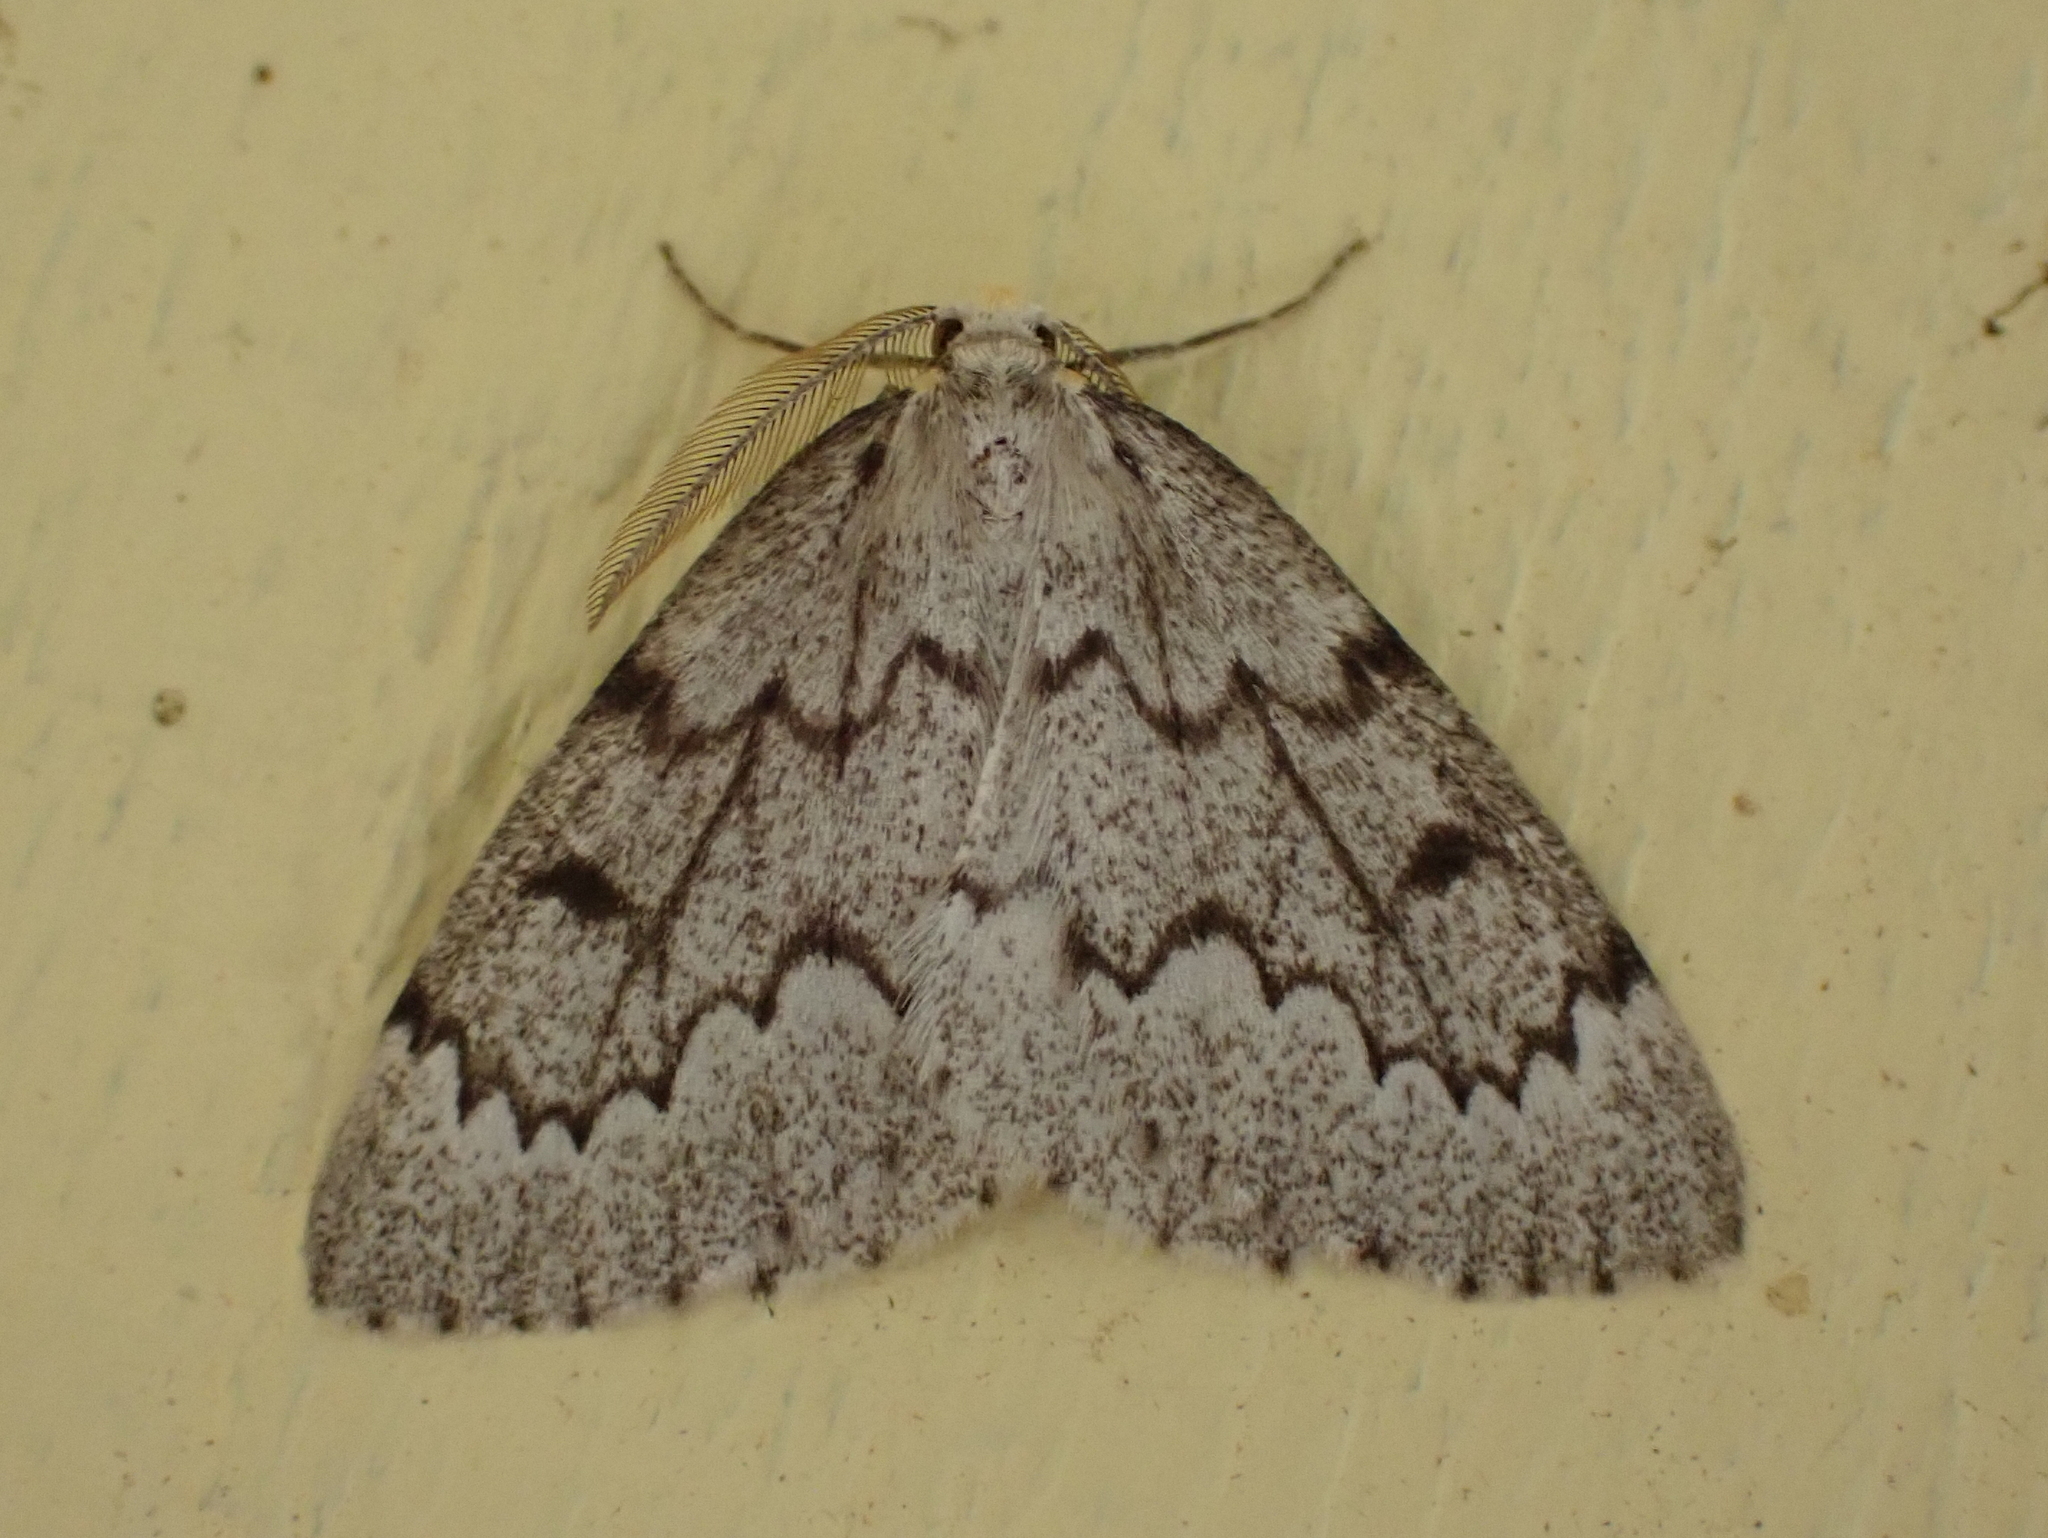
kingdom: Animalia
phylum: Arthropoda
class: Insecta
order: Lepidoptera
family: Geometridae
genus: Nepytia
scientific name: Nepytia canosaria
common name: False hemlock looper
